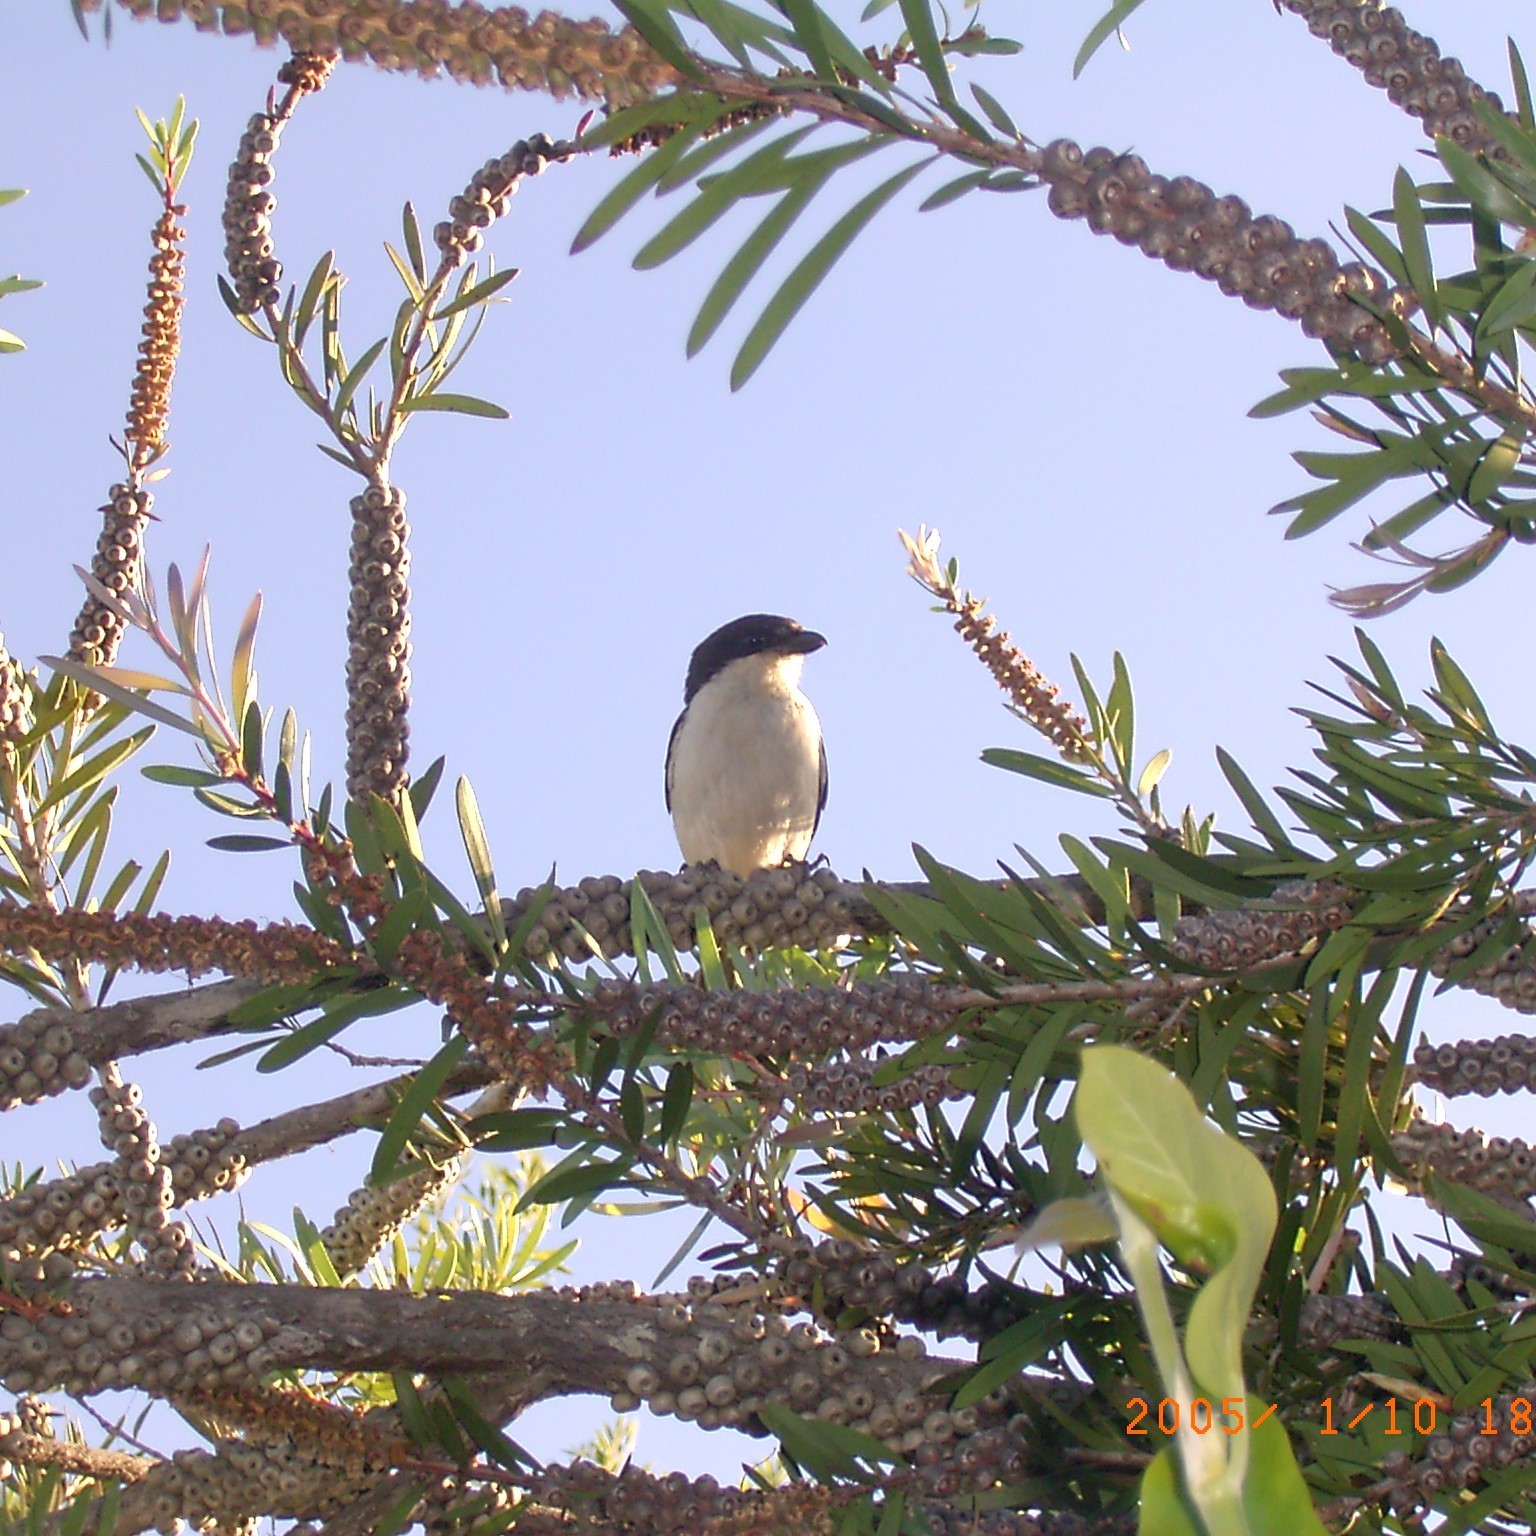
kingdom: Animalia
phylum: Chordata
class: Aves
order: Passeriformes
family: Laniidae
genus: Lanius
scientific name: Lanius collaris
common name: Southern fiscal
